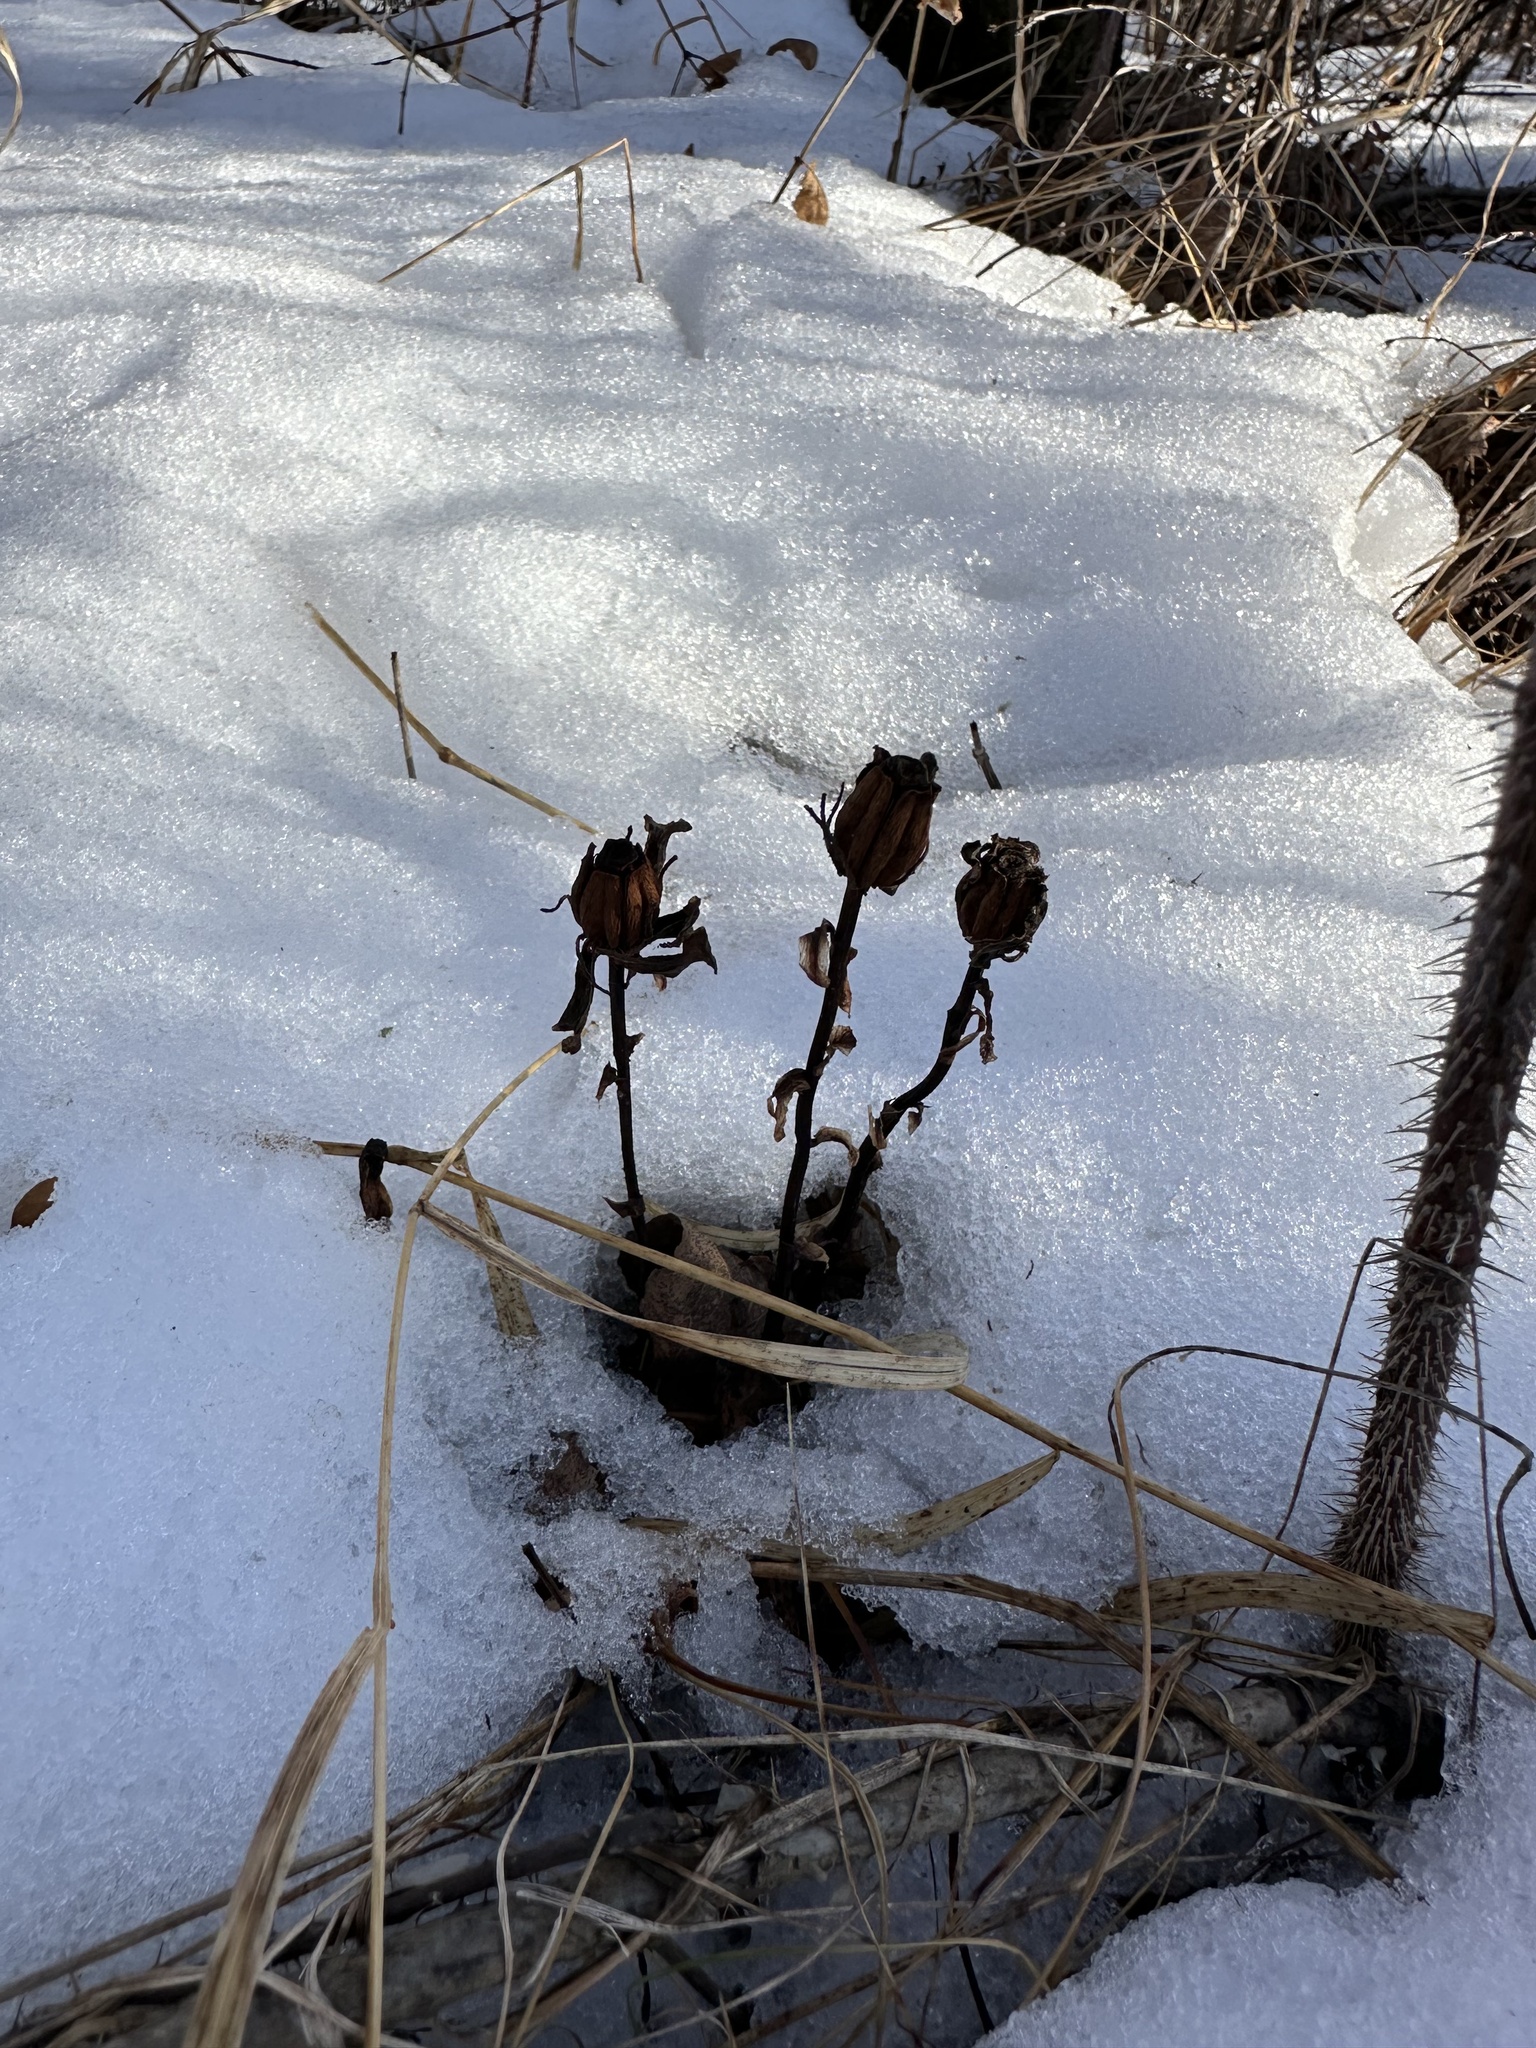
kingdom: Plantae
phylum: Tracheophyta
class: Magnoliopsida
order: Ericales
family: Ericaceae
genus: Monotropa
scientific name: Monotropa uniflora
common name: Convulsion root
